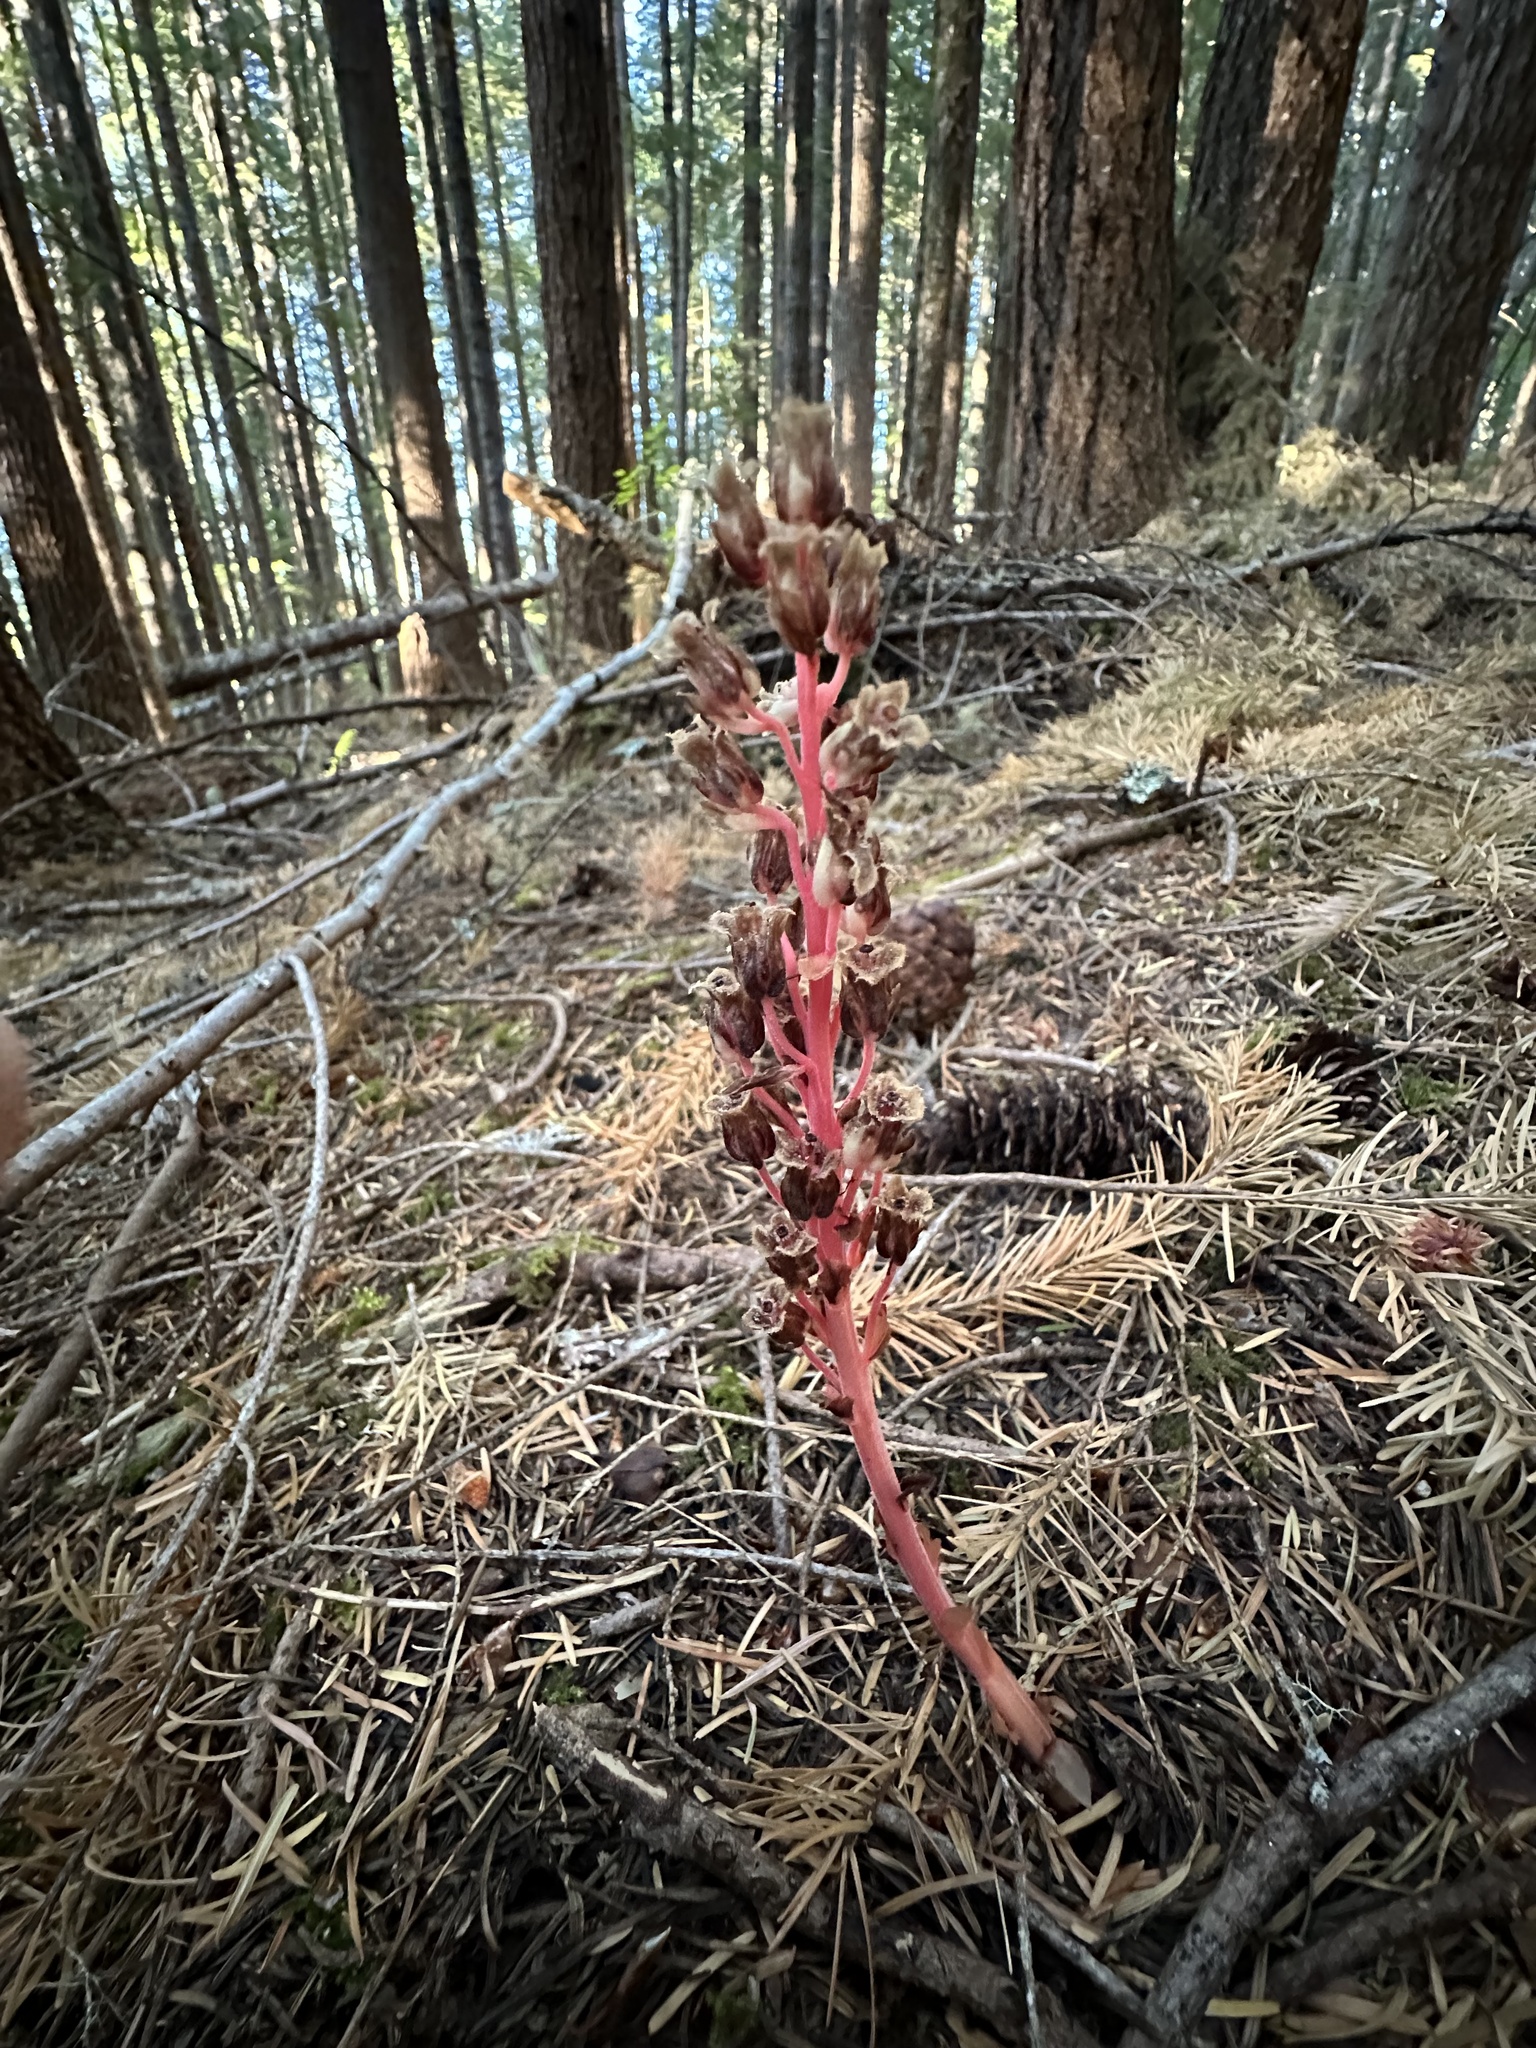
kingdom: Plantae
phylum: Tracheophyta
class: Magnoliopsida
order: Ericales
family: Ericaceae
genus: Hypopitys
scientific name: Hypopitys monotropa
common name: Yellow bird's-nest
